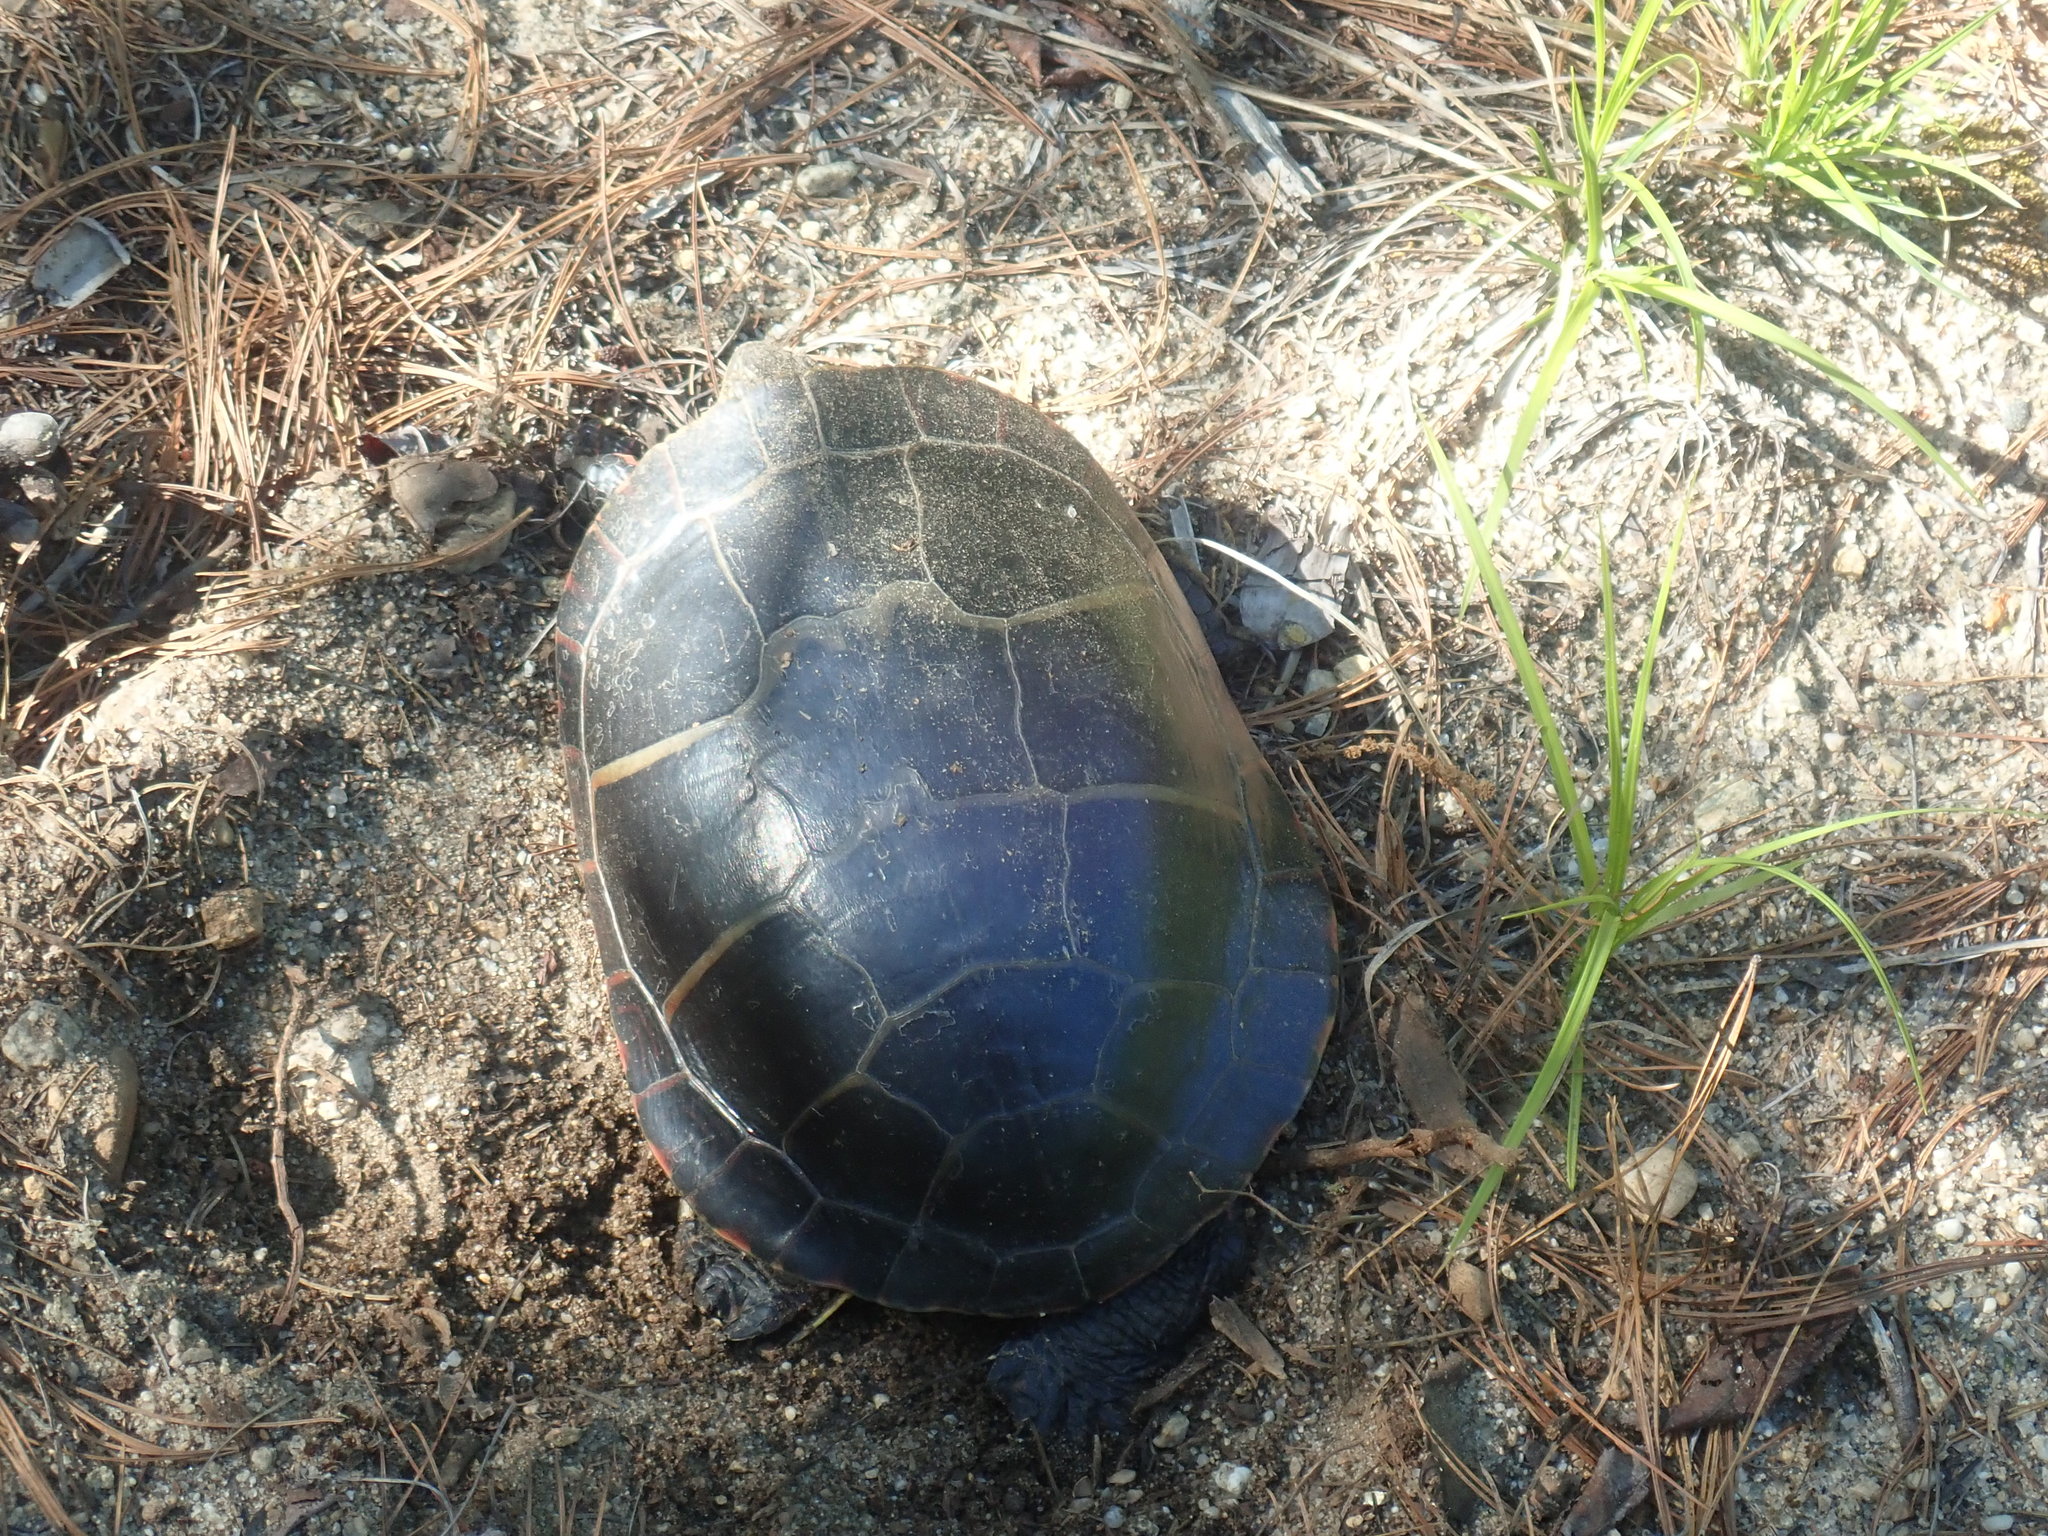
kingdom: Animalia
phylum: Chordata
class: Testudines
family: Emydidae
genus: Chrysemys
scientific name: Chrysemys picta
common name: Painted turtle
